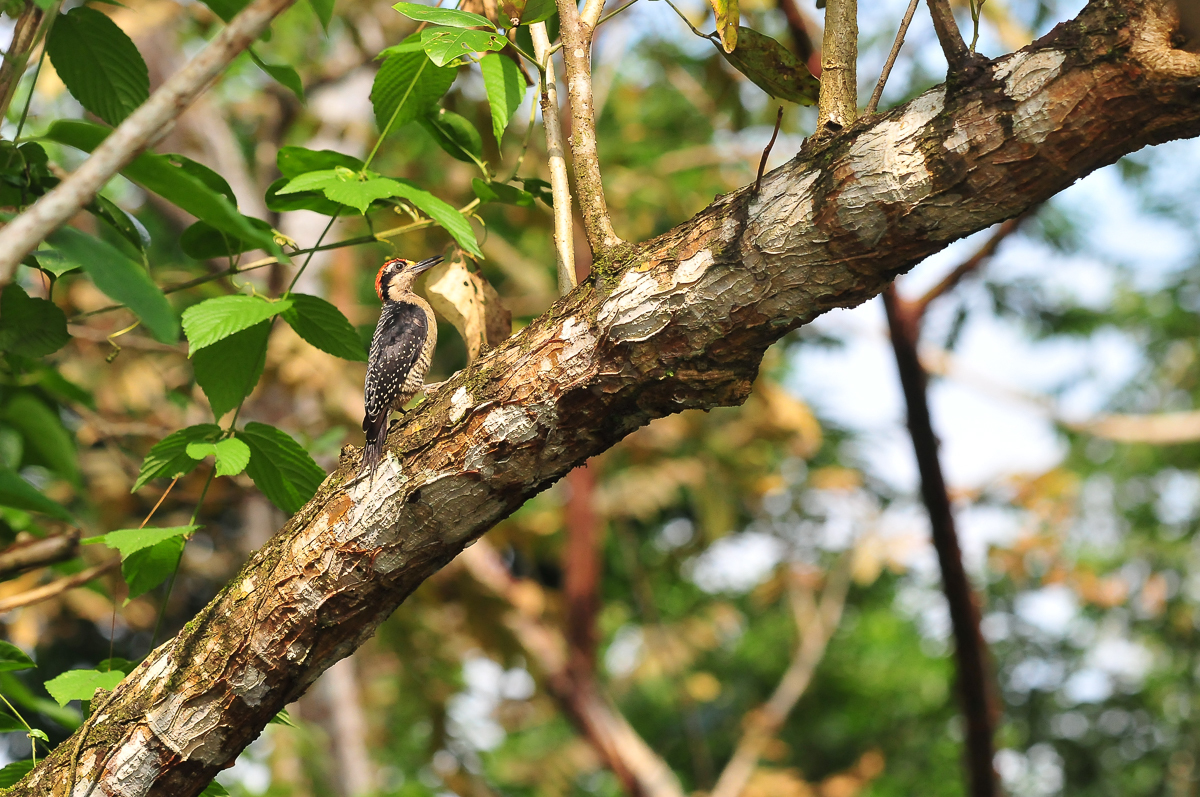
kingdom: Animalia
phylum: Chordata
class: Aves
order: Piciformes
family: Picidae
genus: Melanerpes
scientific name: Melanerpes pucherani
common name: Black-cheeked woodpecker
